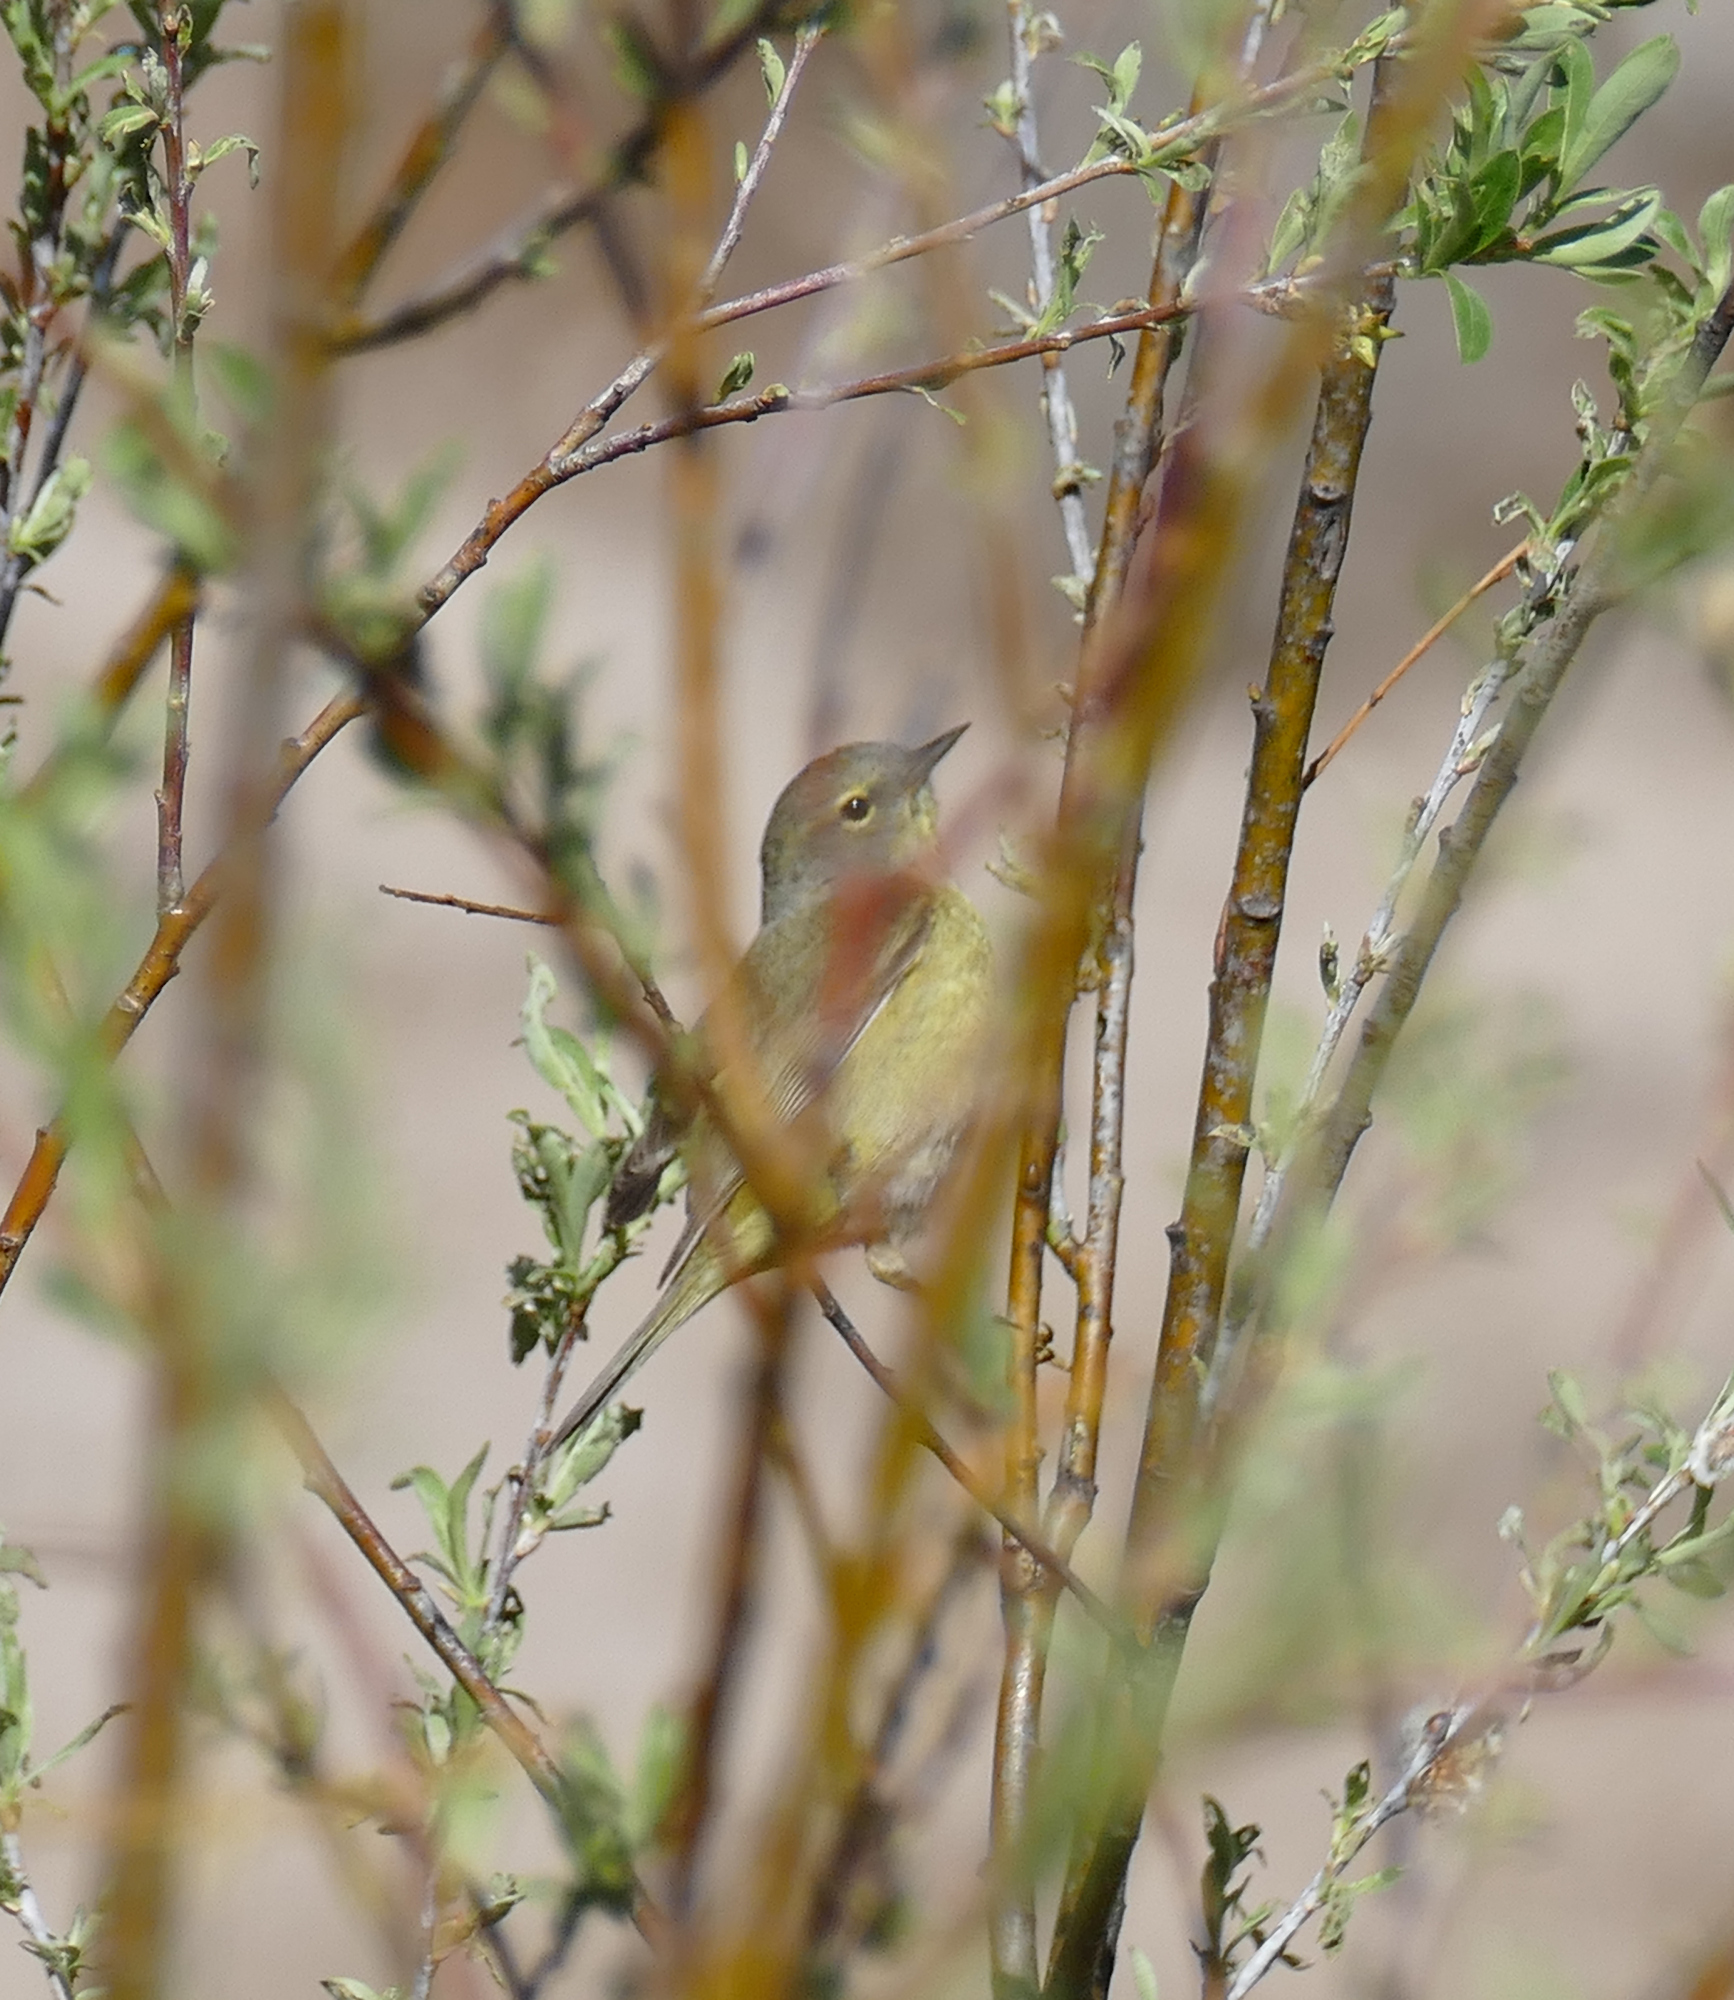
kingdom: Animalia
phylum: Chordata
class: Aves
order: Passeriformes
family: Parulidae
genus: Leiothlypis
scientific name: Leiothlypis celata
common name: Orange-crowned warbler
